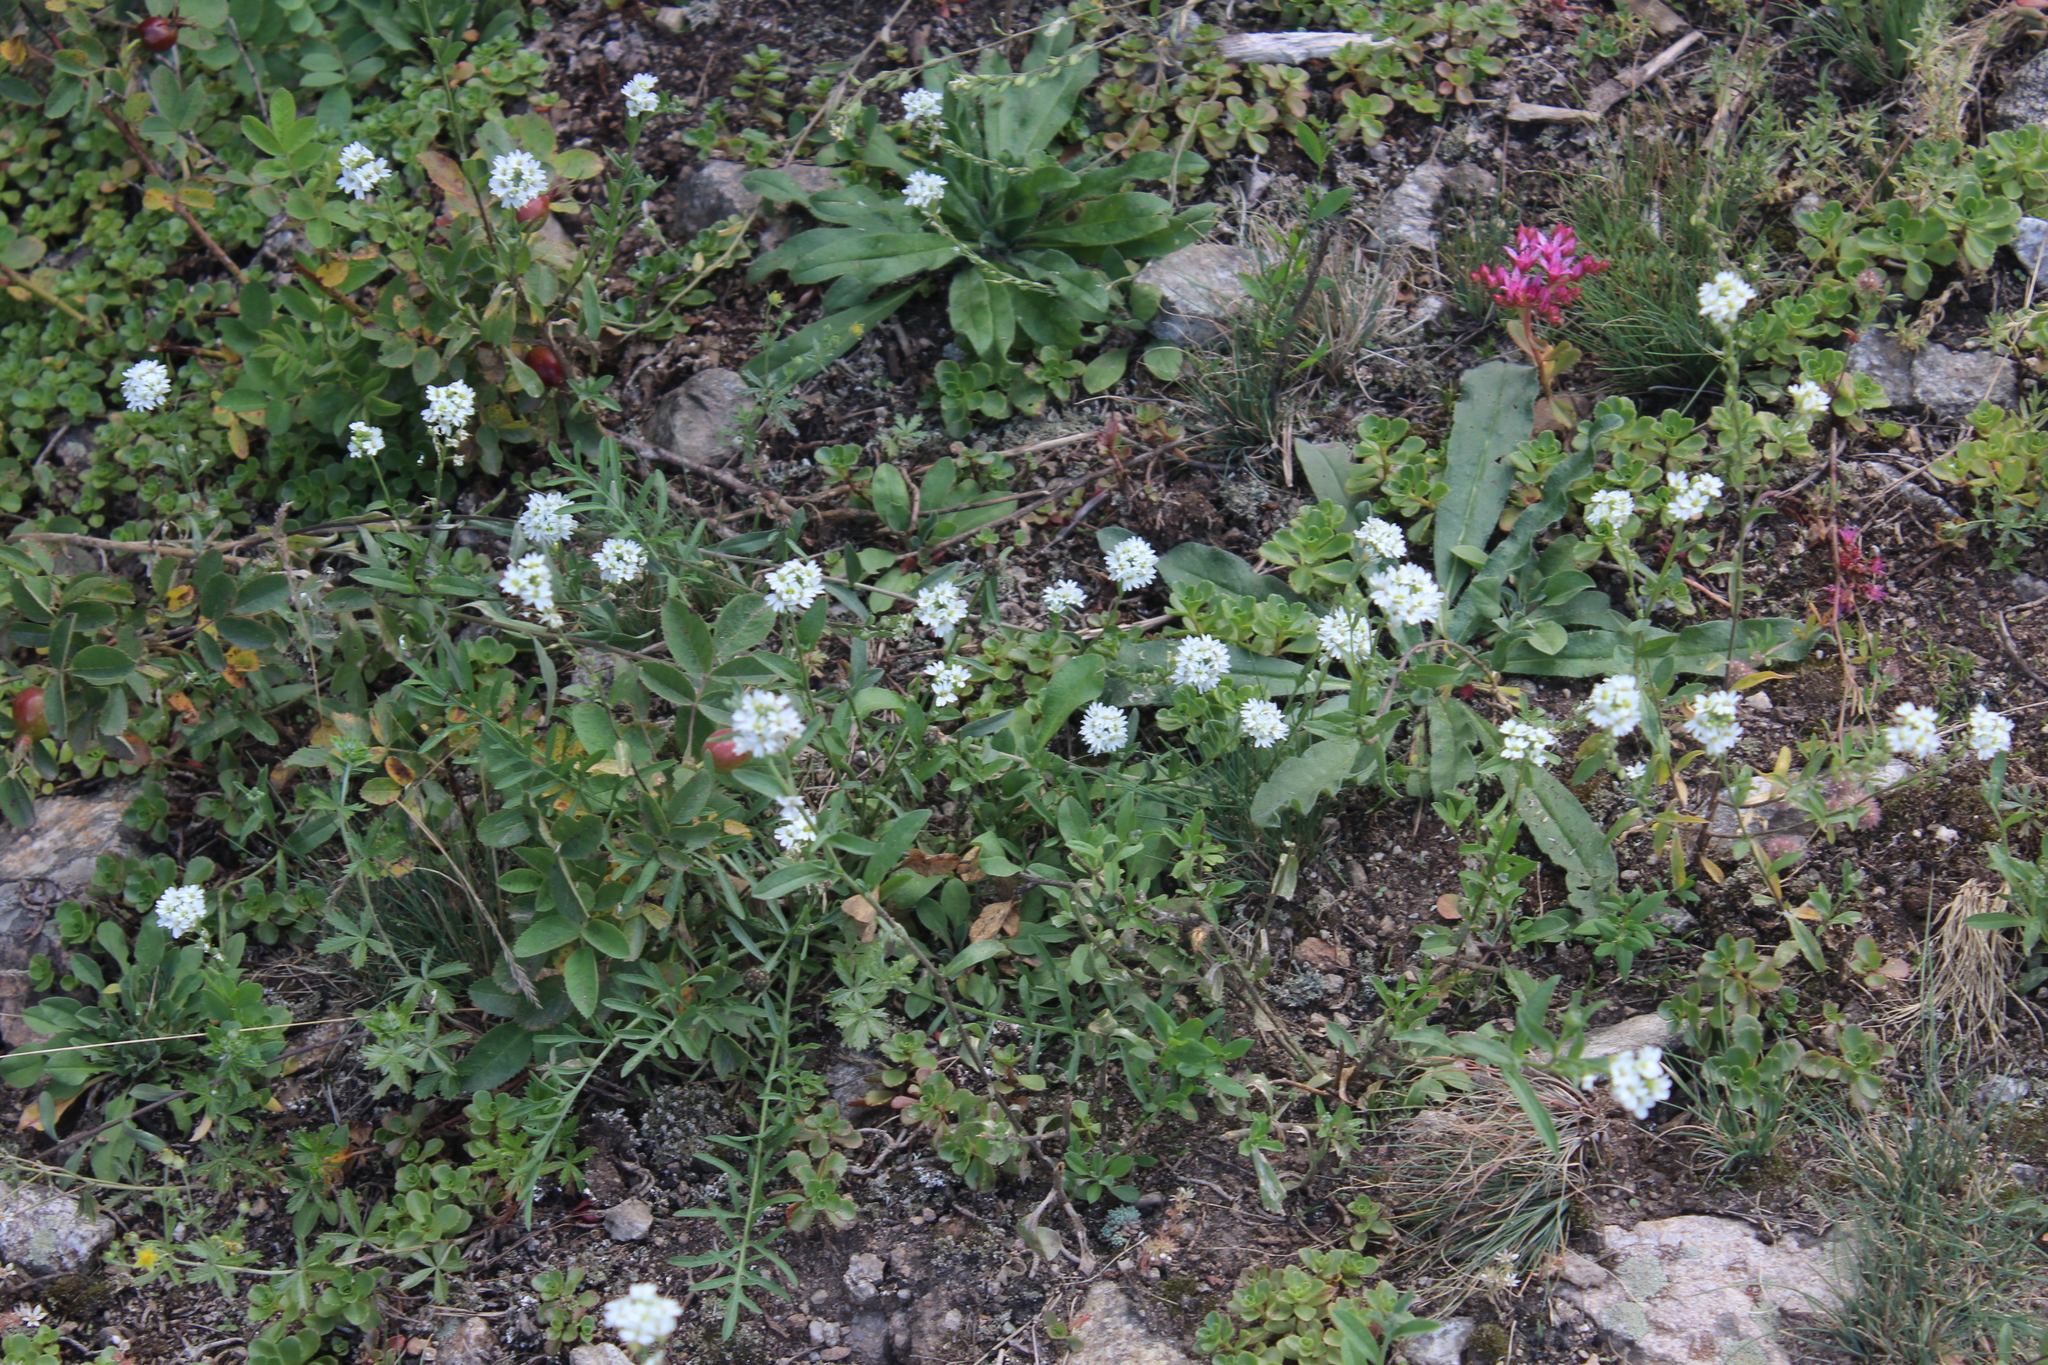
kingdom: Plantae
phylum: Tracheophyta
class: Magnoliopsida
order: Brassicales
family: Brassicaceae
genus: Berteroa
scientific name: Berteroa incana
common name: Hoary alison
